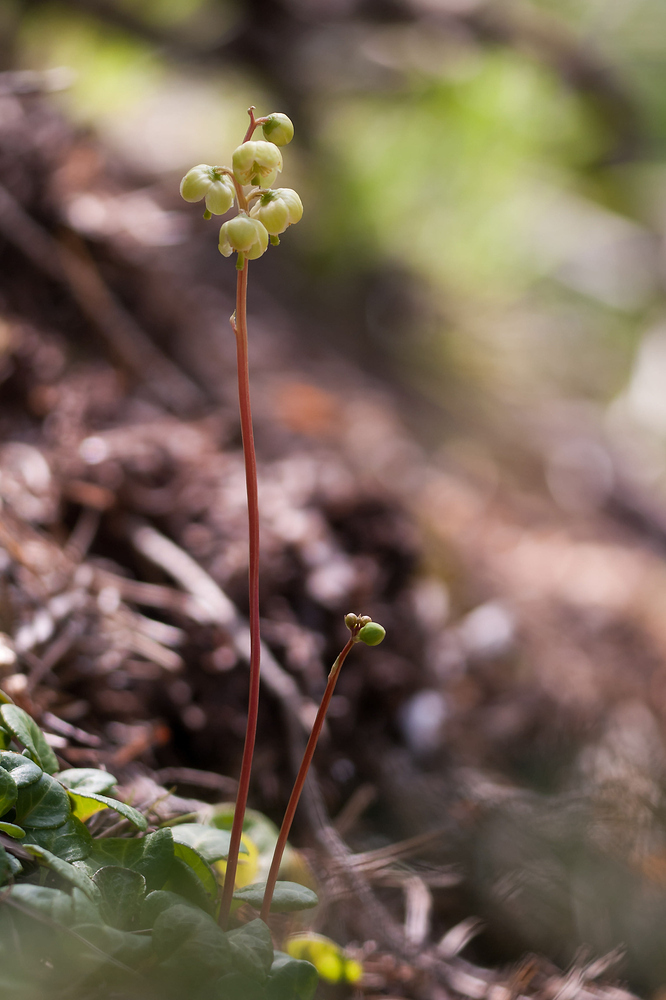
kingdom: Plantae
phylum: Tracheophyta
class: Magnoliopsida
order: Ericales
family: Ericaceae
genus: Pyrola
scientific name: Pyrola chlorantha
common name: Green wintergreen
